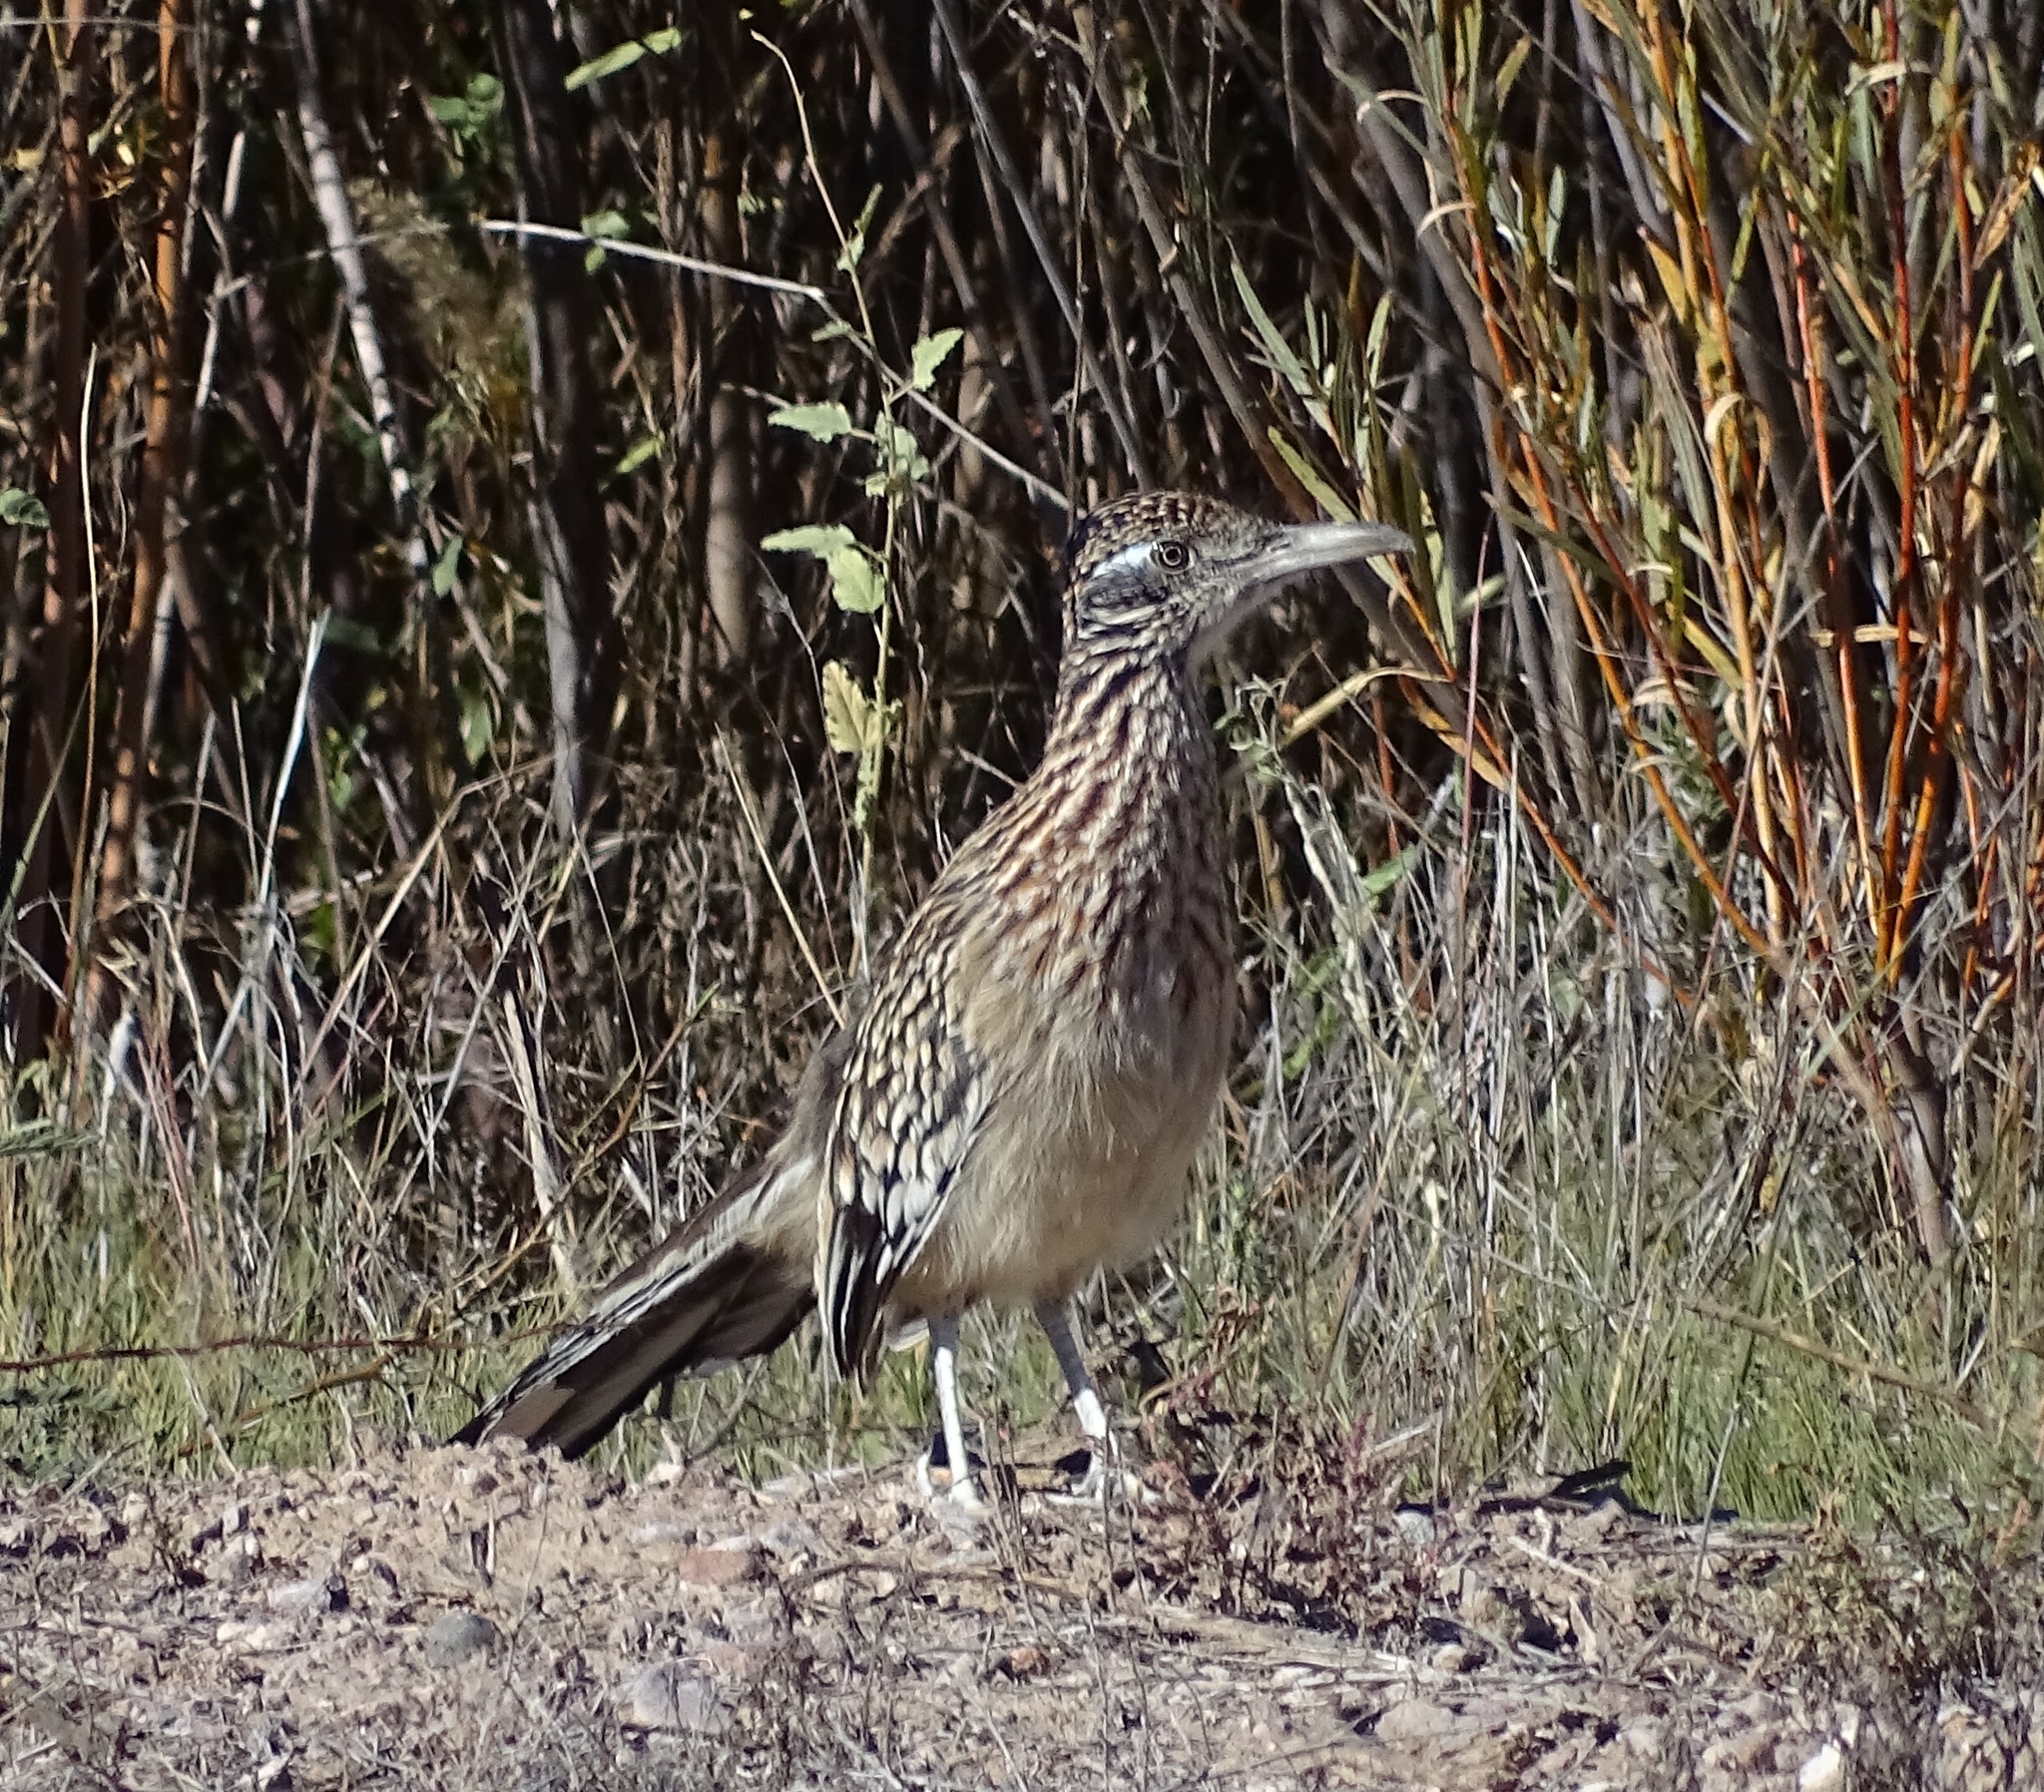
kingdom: Animalia
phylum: Chordata
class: Aves
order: Cuculiformes
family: Cuculidae
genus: Geococcyx
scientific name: Geococcyx californianus
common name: Greater roadrunner
